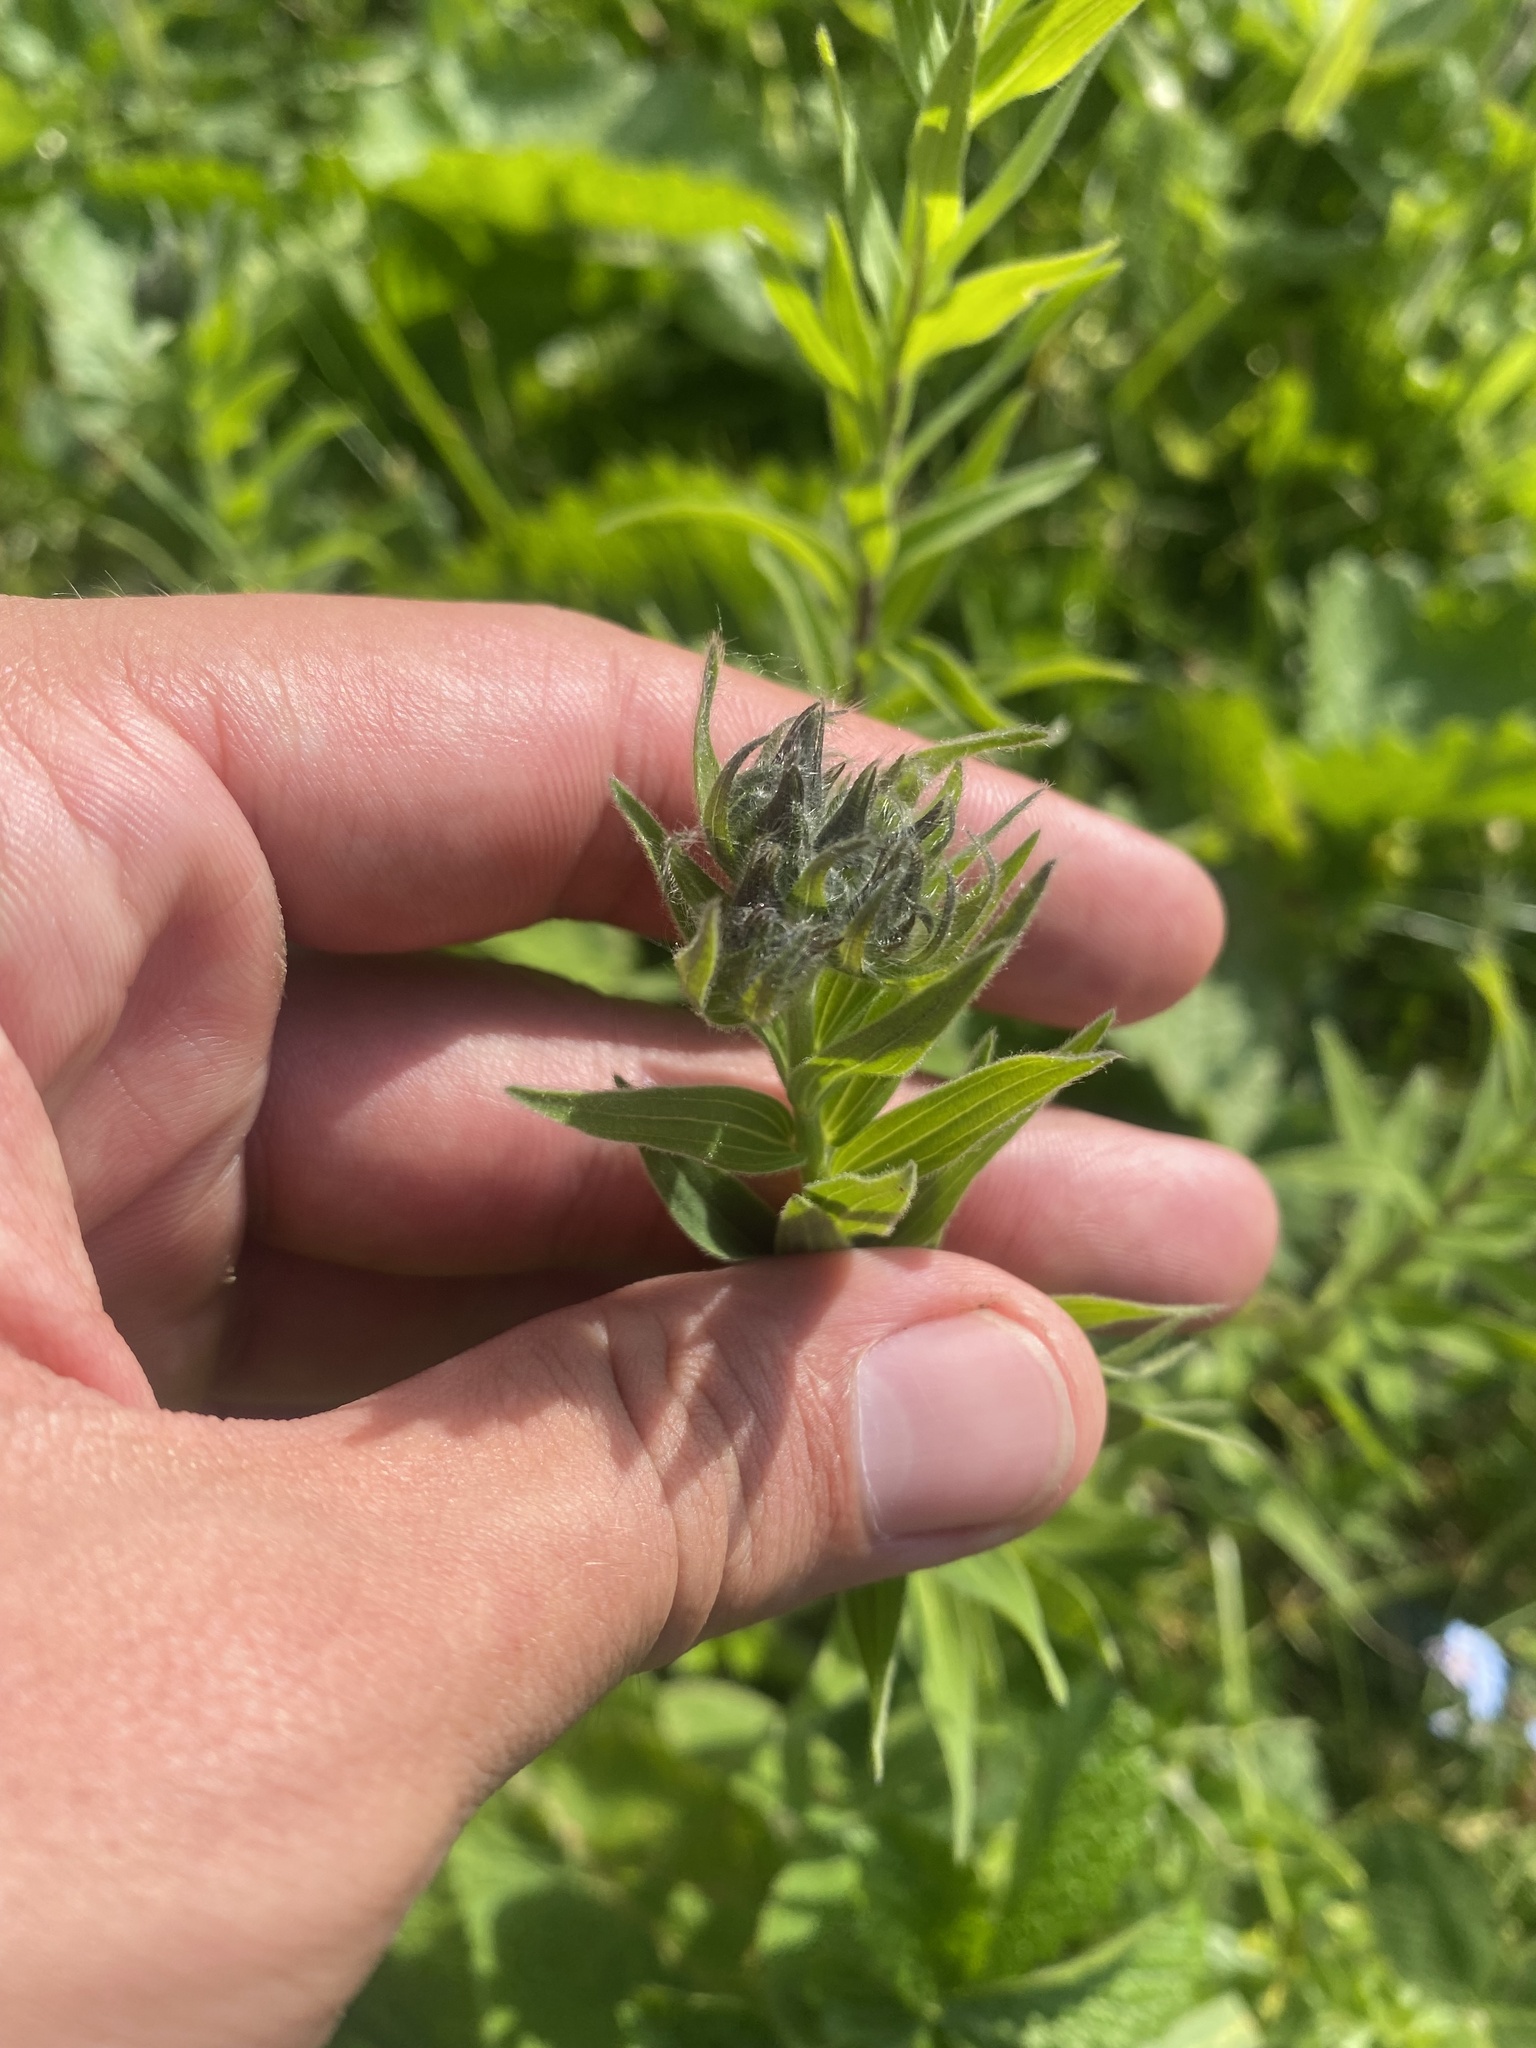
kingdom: Plantae
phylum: Tracheophyta
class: Magnoliopsida
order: Malpighiales
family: Linaceae
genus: Linum
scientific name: Linum hypericifolium
